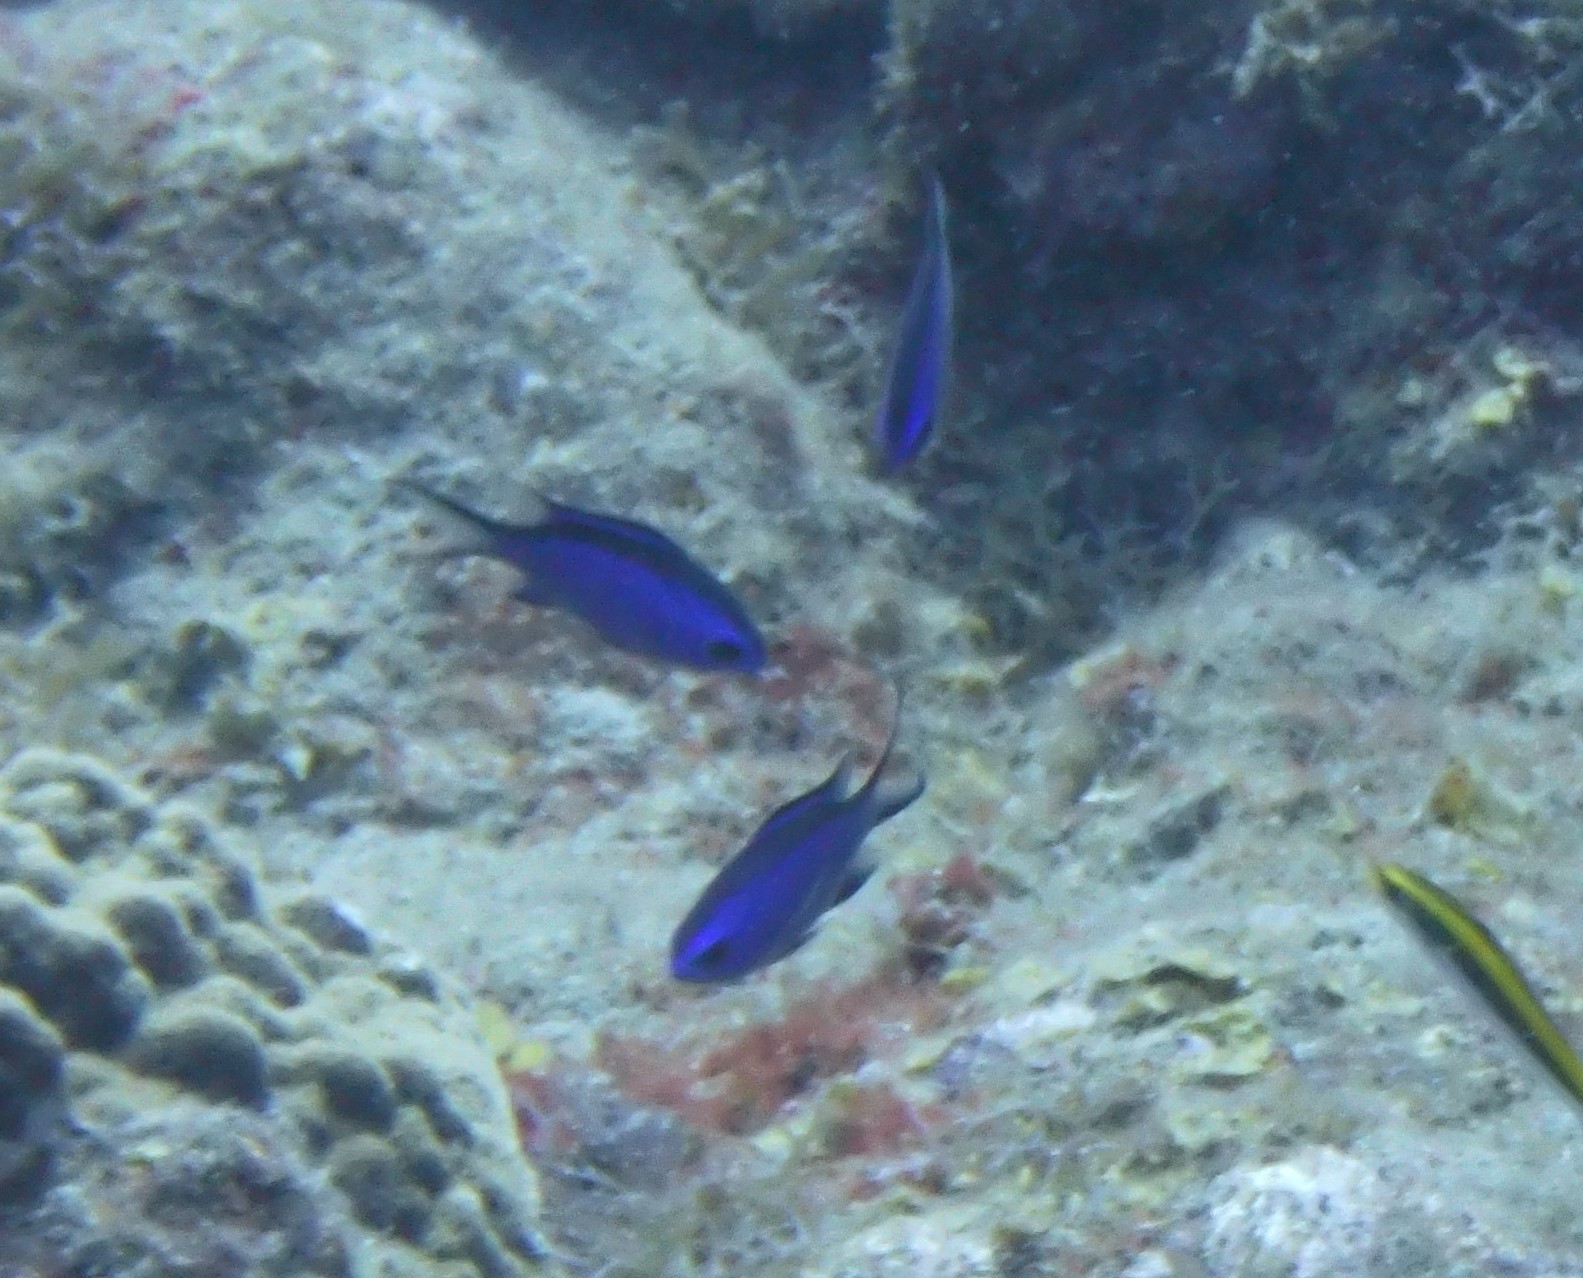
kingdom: Animalia
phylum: Chordata
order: Perciformes
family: Pomacentridae
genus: Chromis
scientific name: Chromis cyanea
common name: Blue chromis
